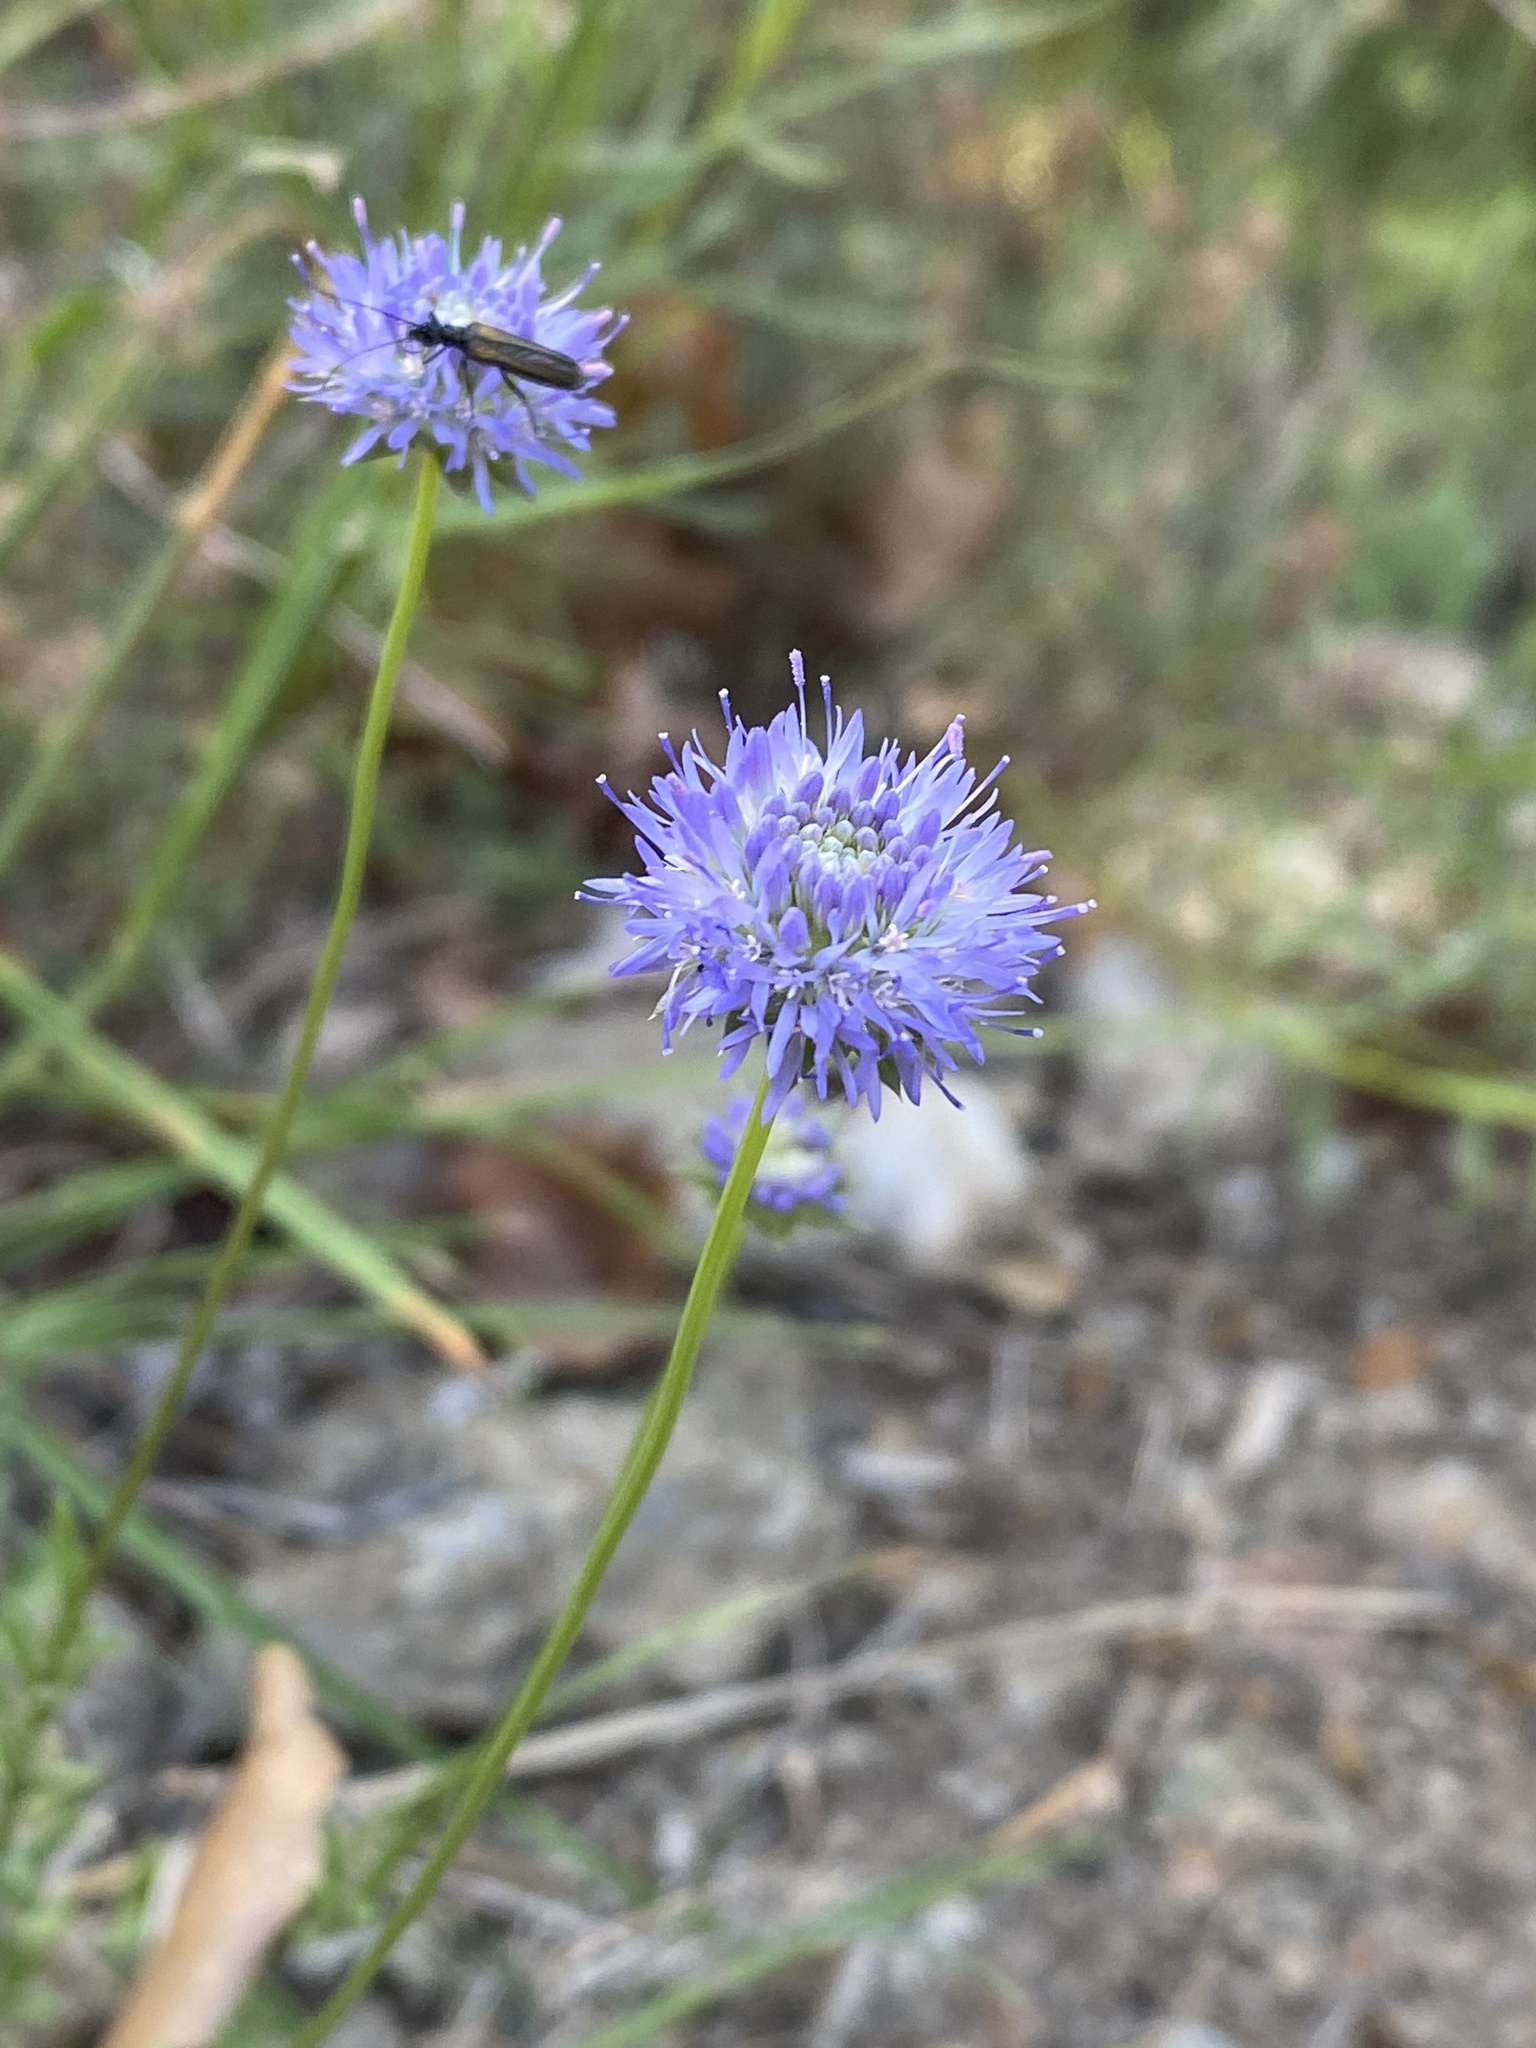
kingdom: Plantae
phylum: Tracheophyta
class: Magnoliopsida
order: Asterales
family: Campanulaceae
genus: Jasione
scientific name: Jasione montana
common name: Sheep's-bit
